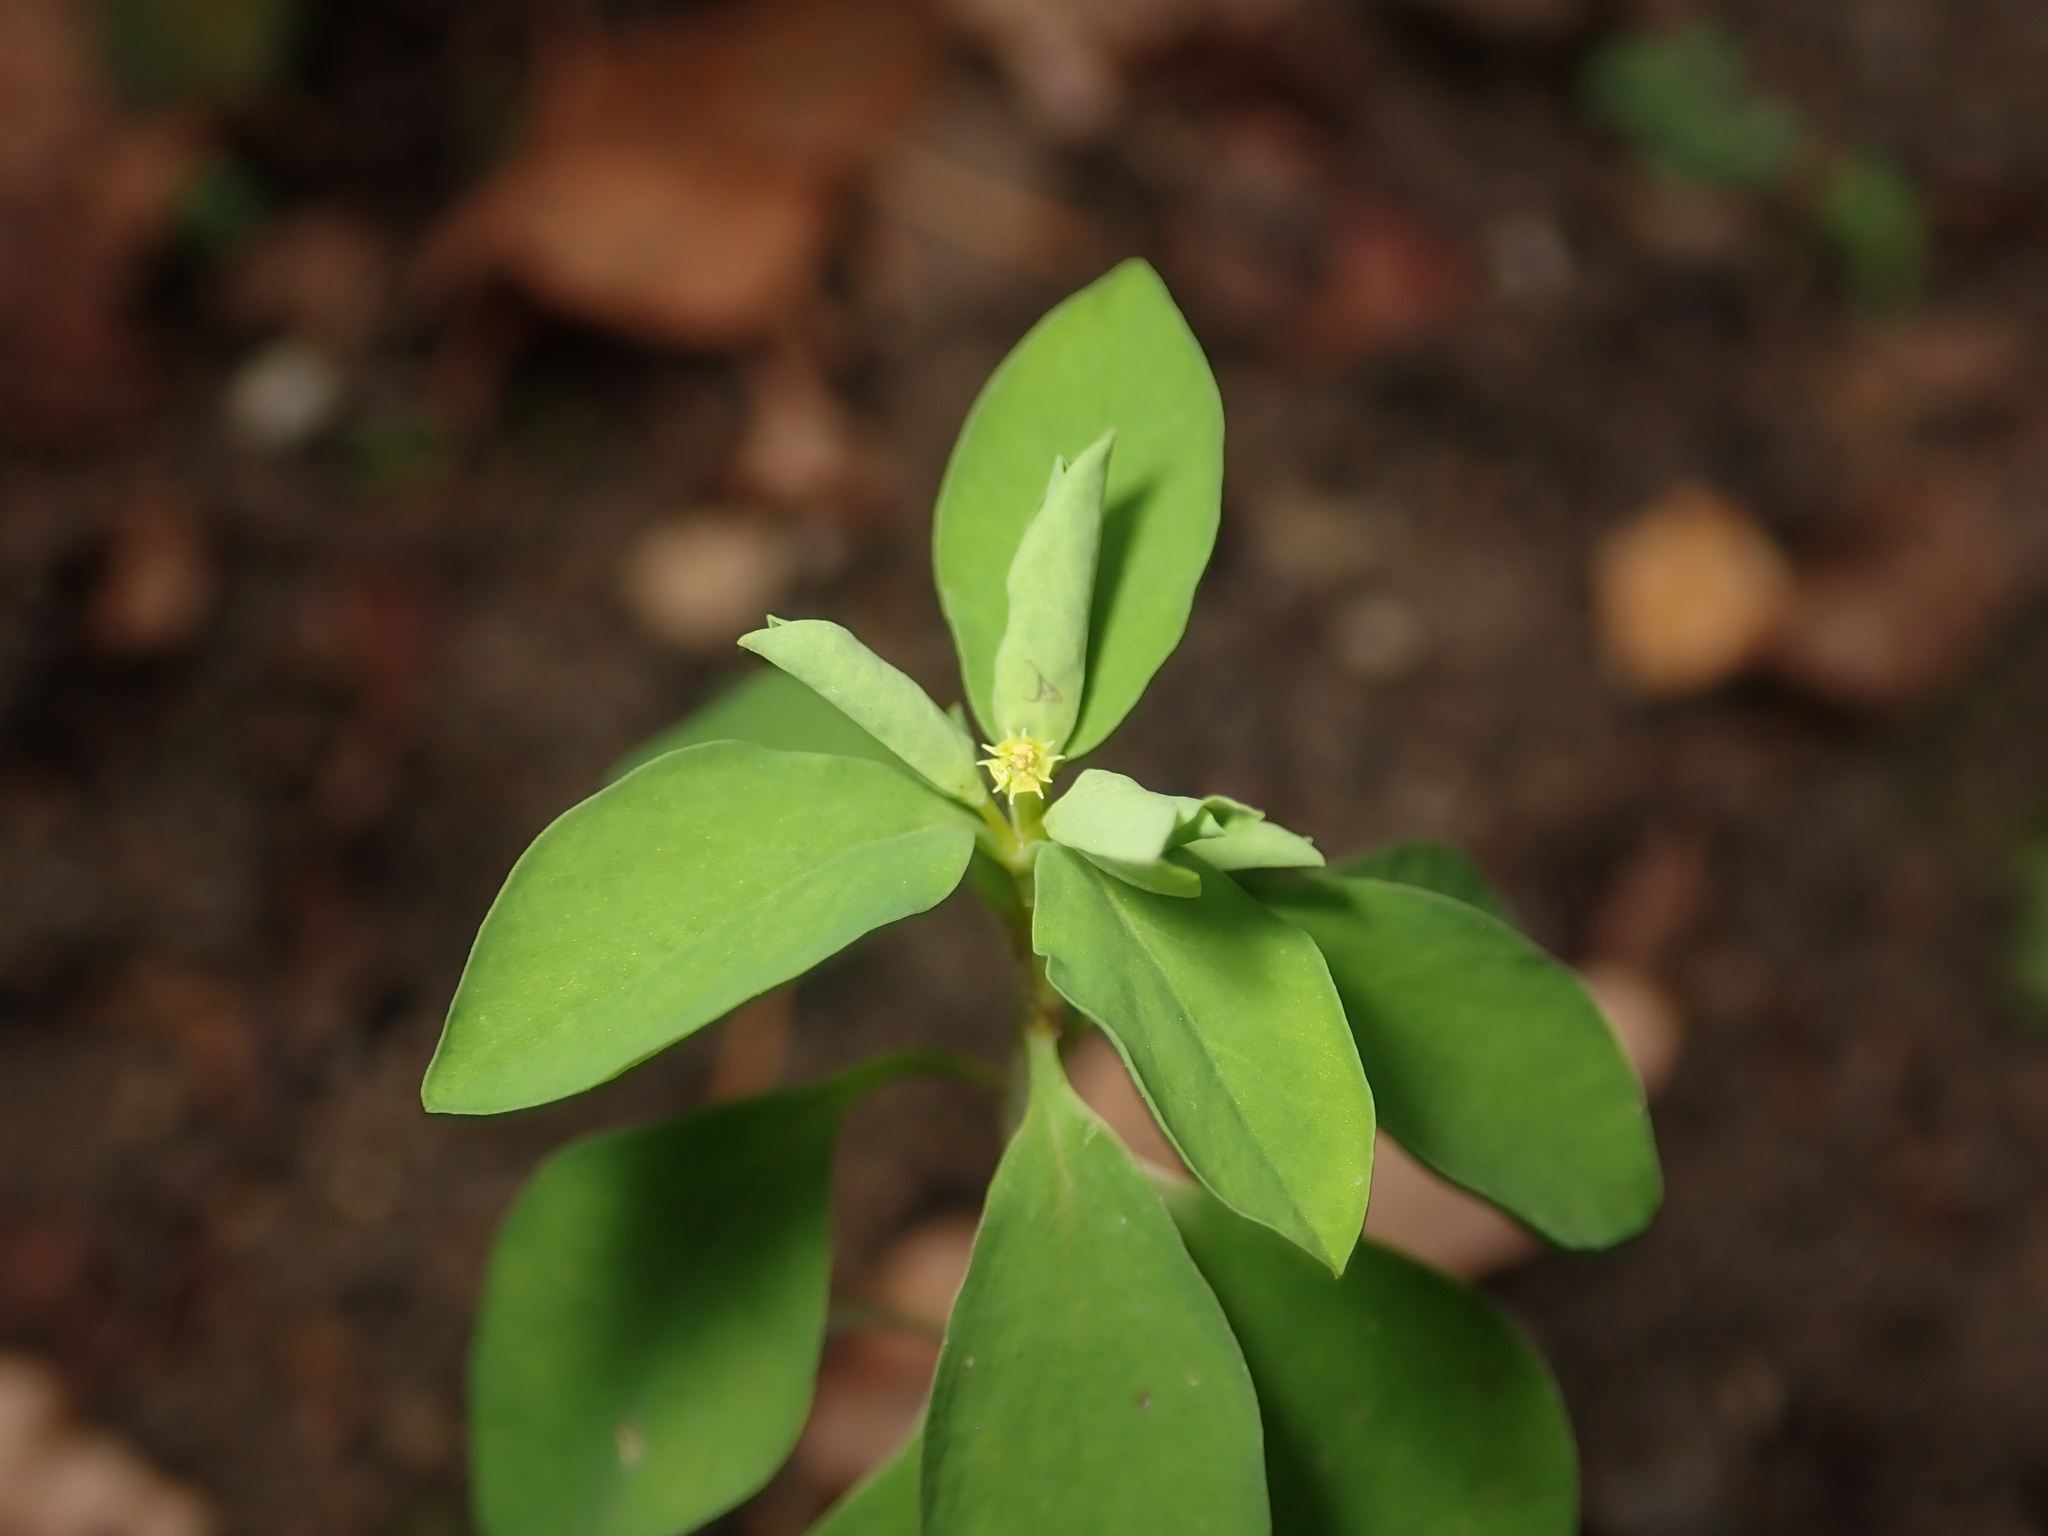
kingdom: Plantae
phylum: Tracheophyta
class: Magnoliopsida
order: Malpighiales
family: Euphorbiaceae
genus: Euphorbia
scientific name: Euphorbia peplus
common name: Petty spurge
